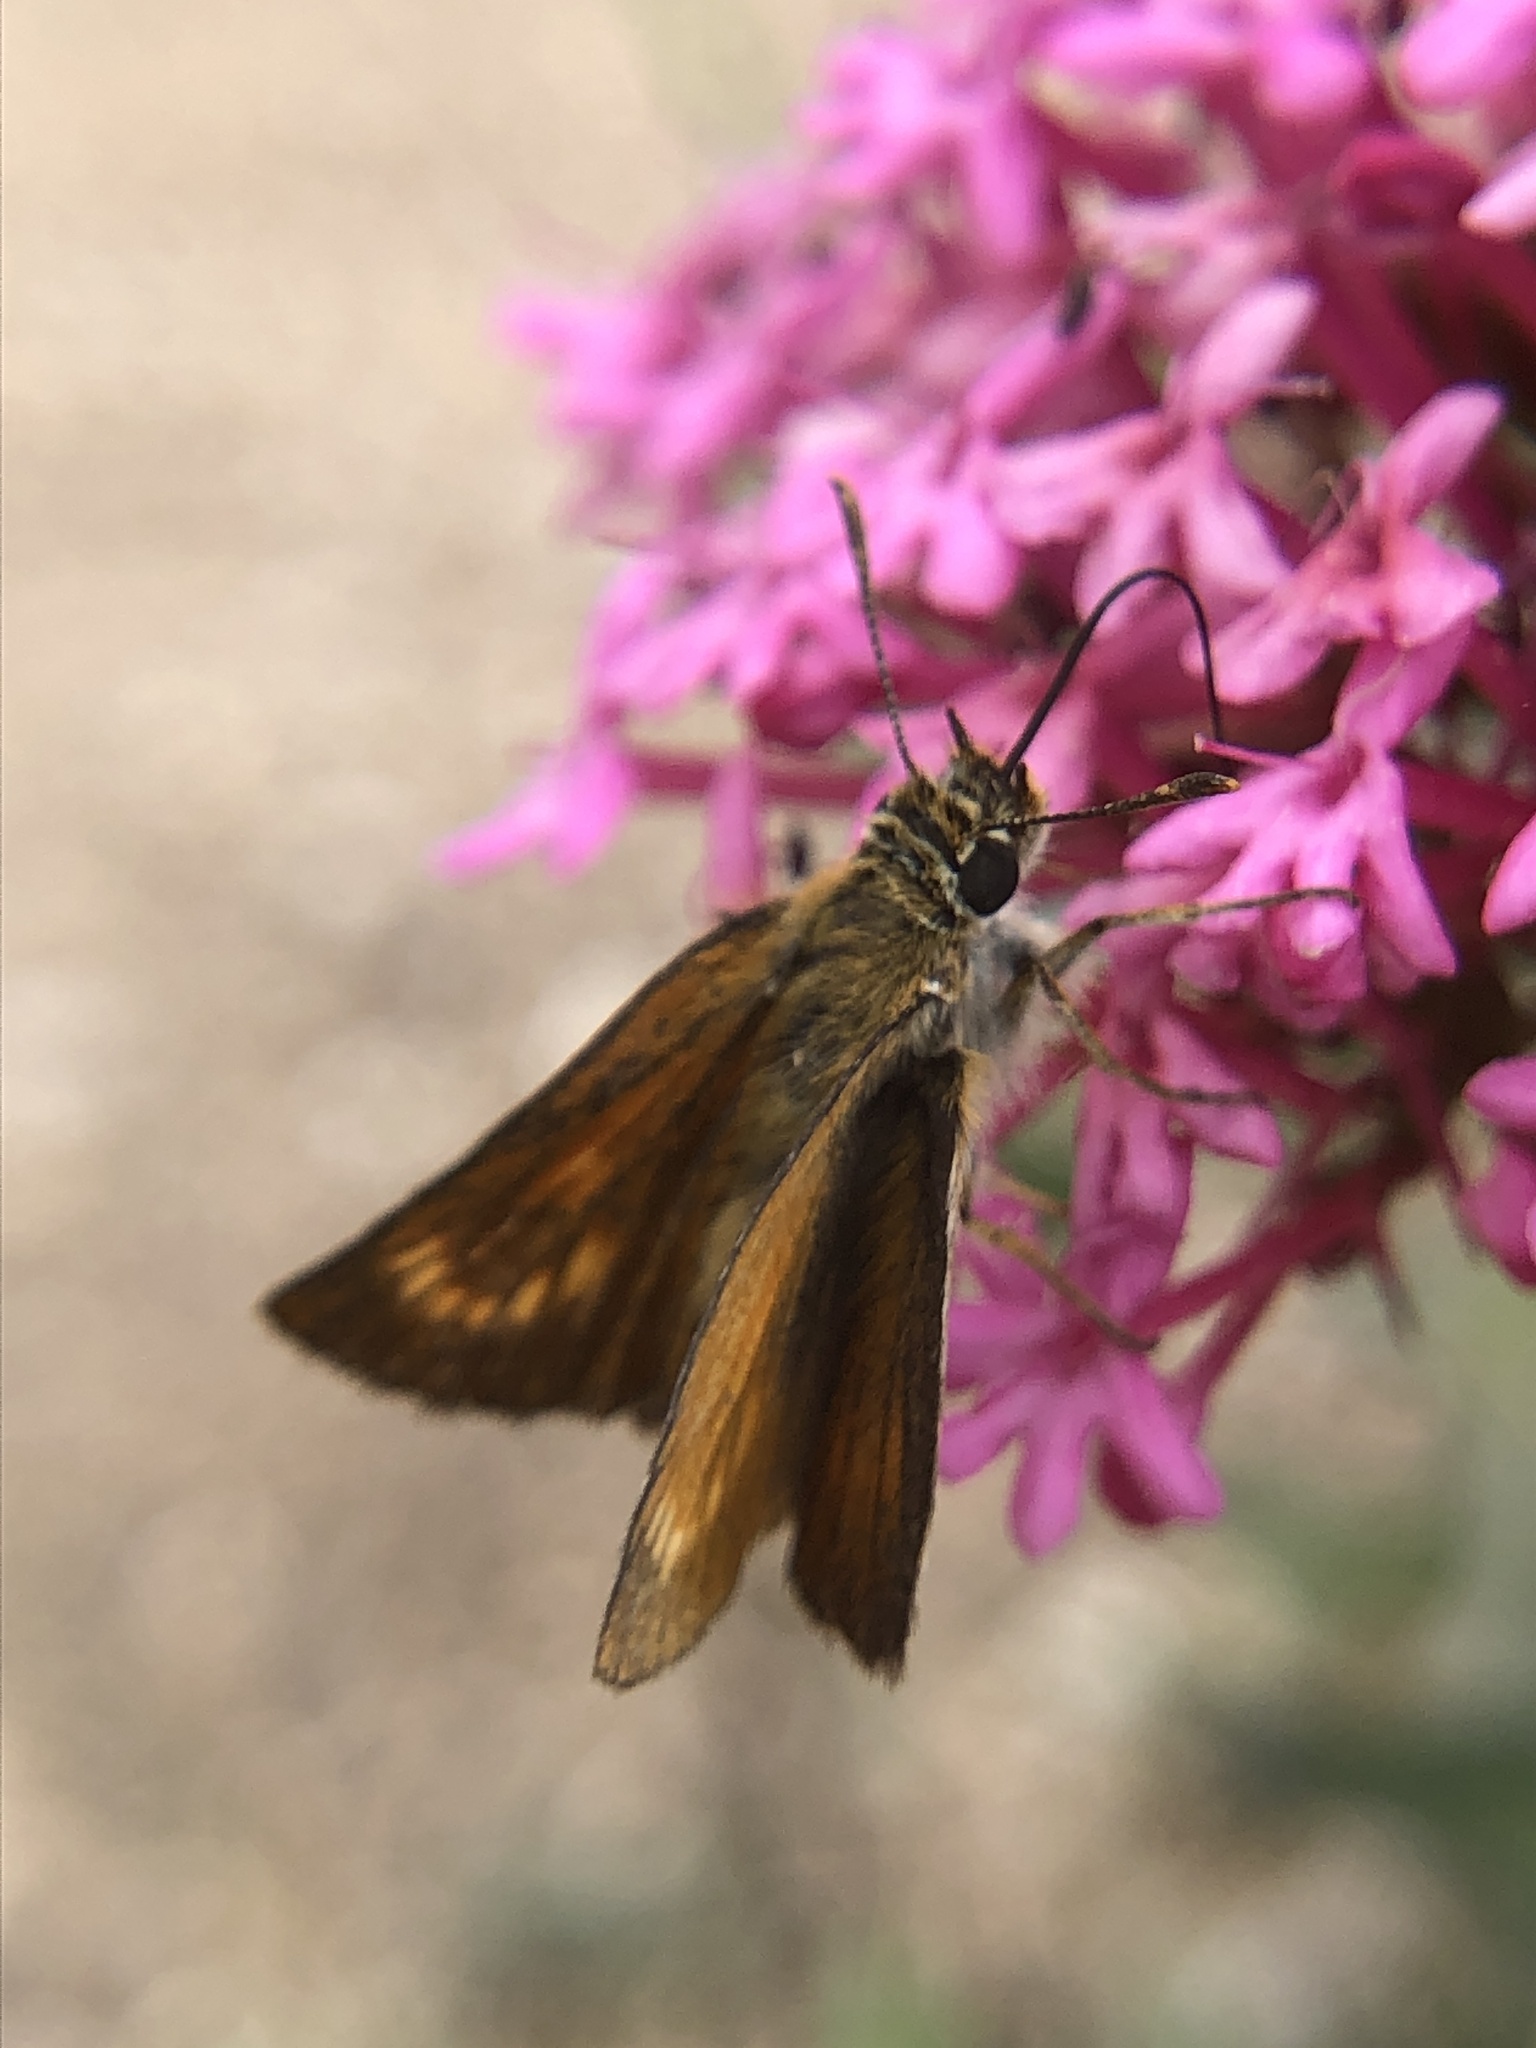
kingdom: Animalia
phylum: Arthropoda
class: Insecta
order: Lepidoptera
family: Hesperiidae
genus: Thymelicus
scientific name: Thymelicus acteon
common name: Lulworth skipper
